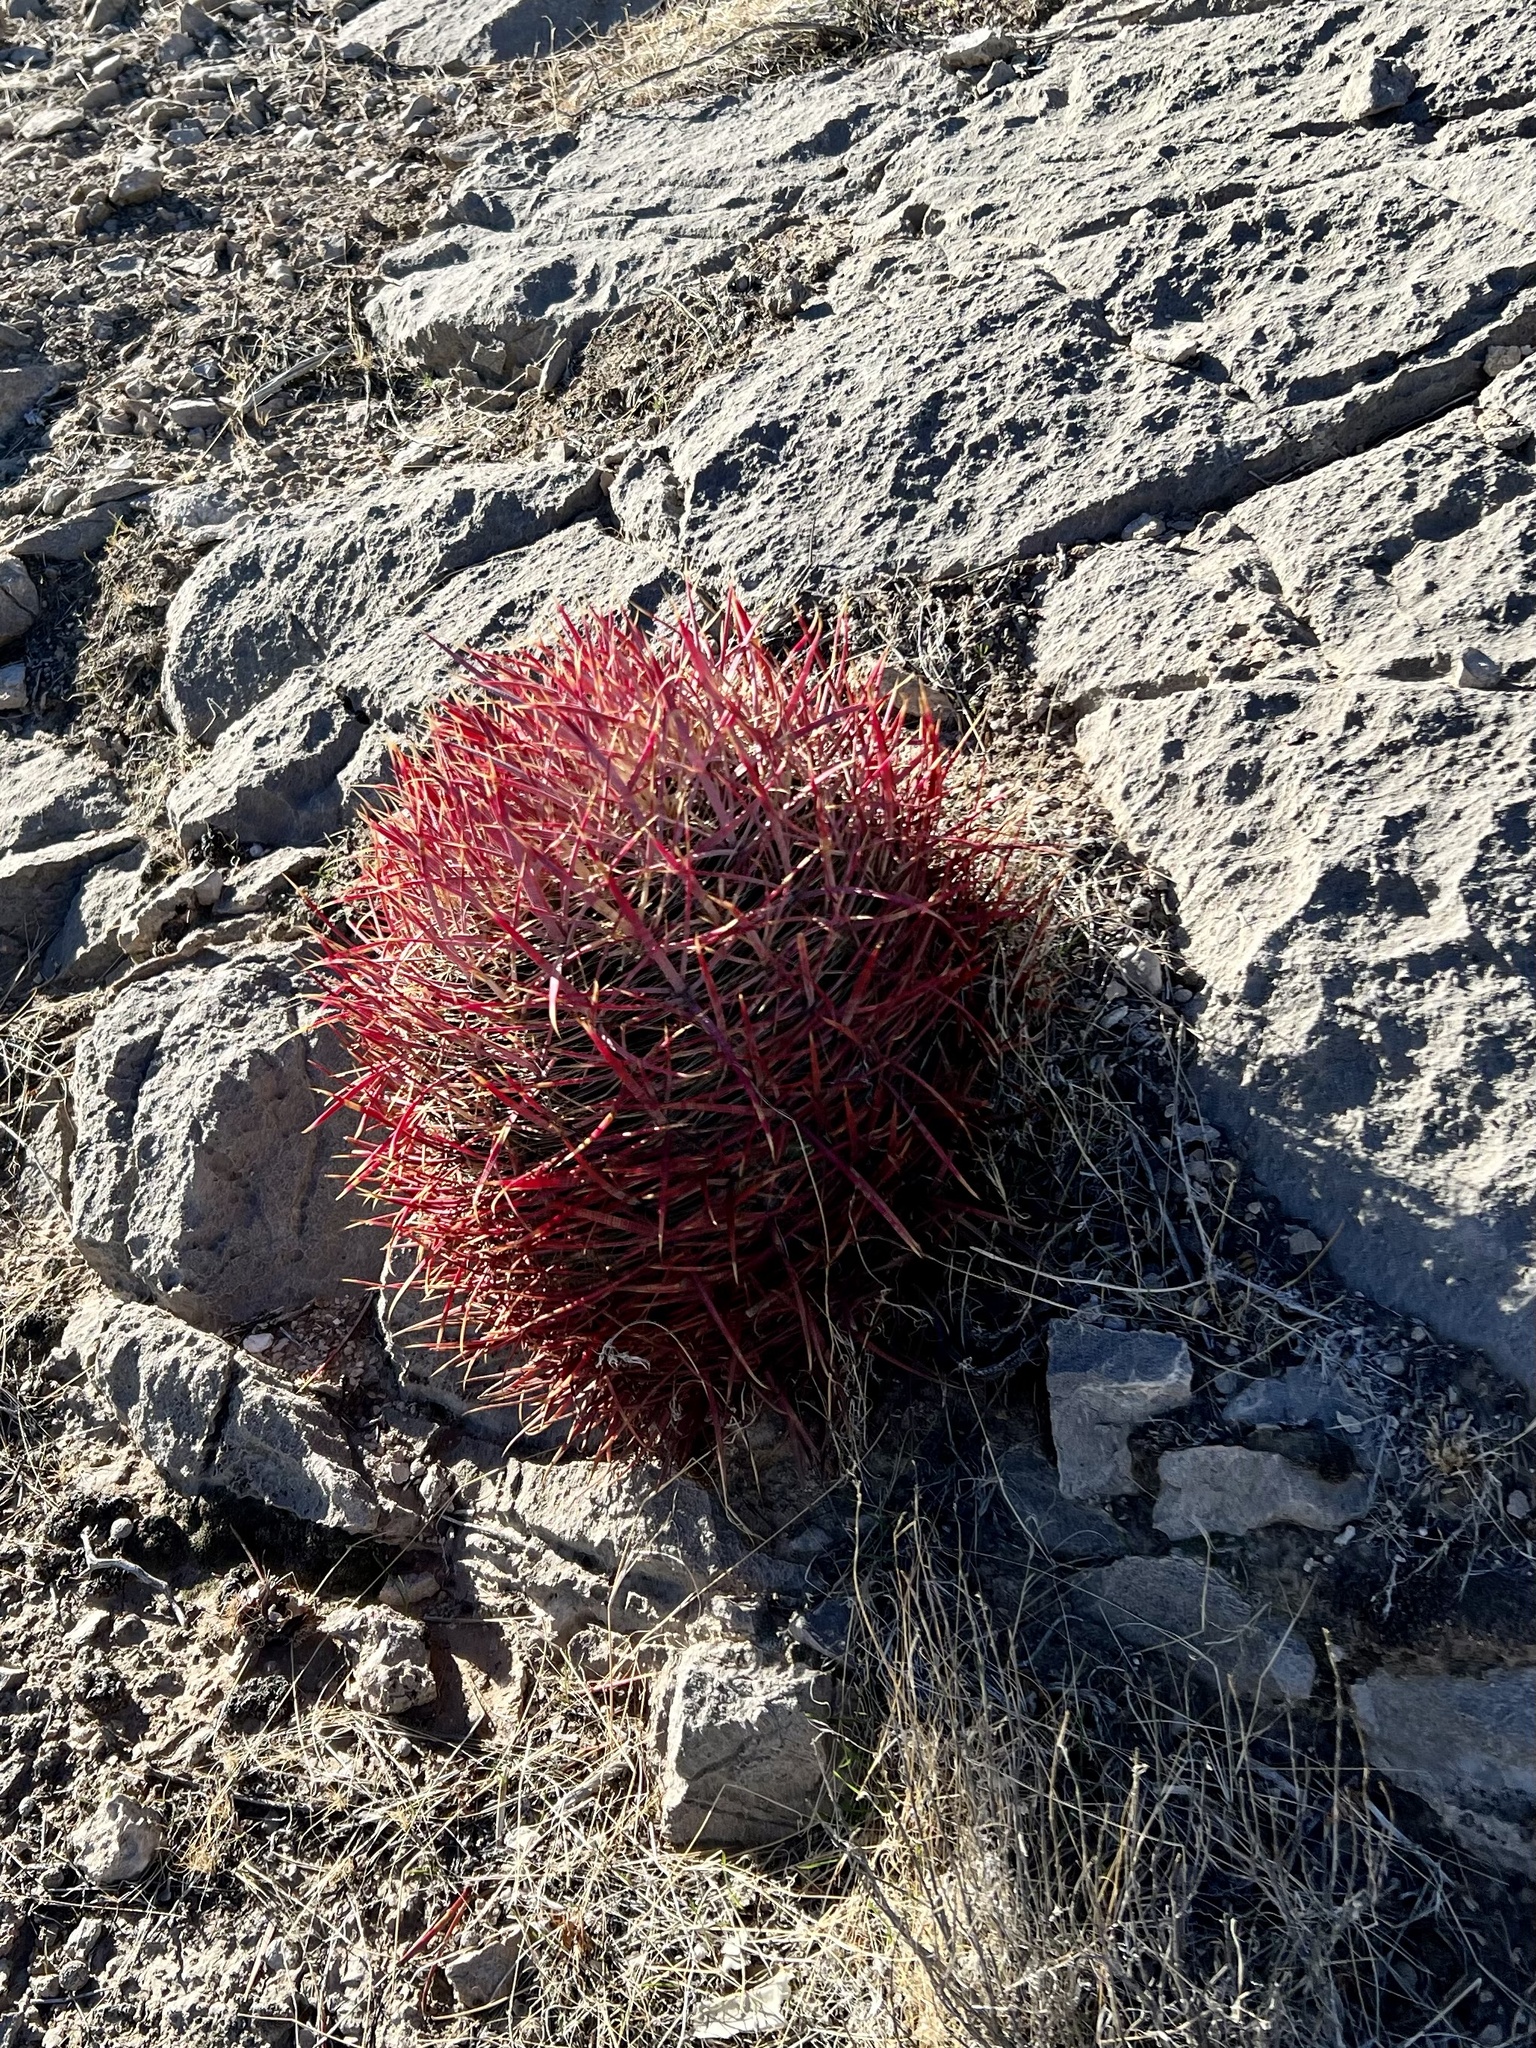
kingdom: Plantae
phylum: Tracheophyta
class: Magnoliopsida
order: Caryophyllales
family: Cactaceae
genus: Ferocactus
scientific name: Ferocactus cylindraceus
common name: California barrel cactus
